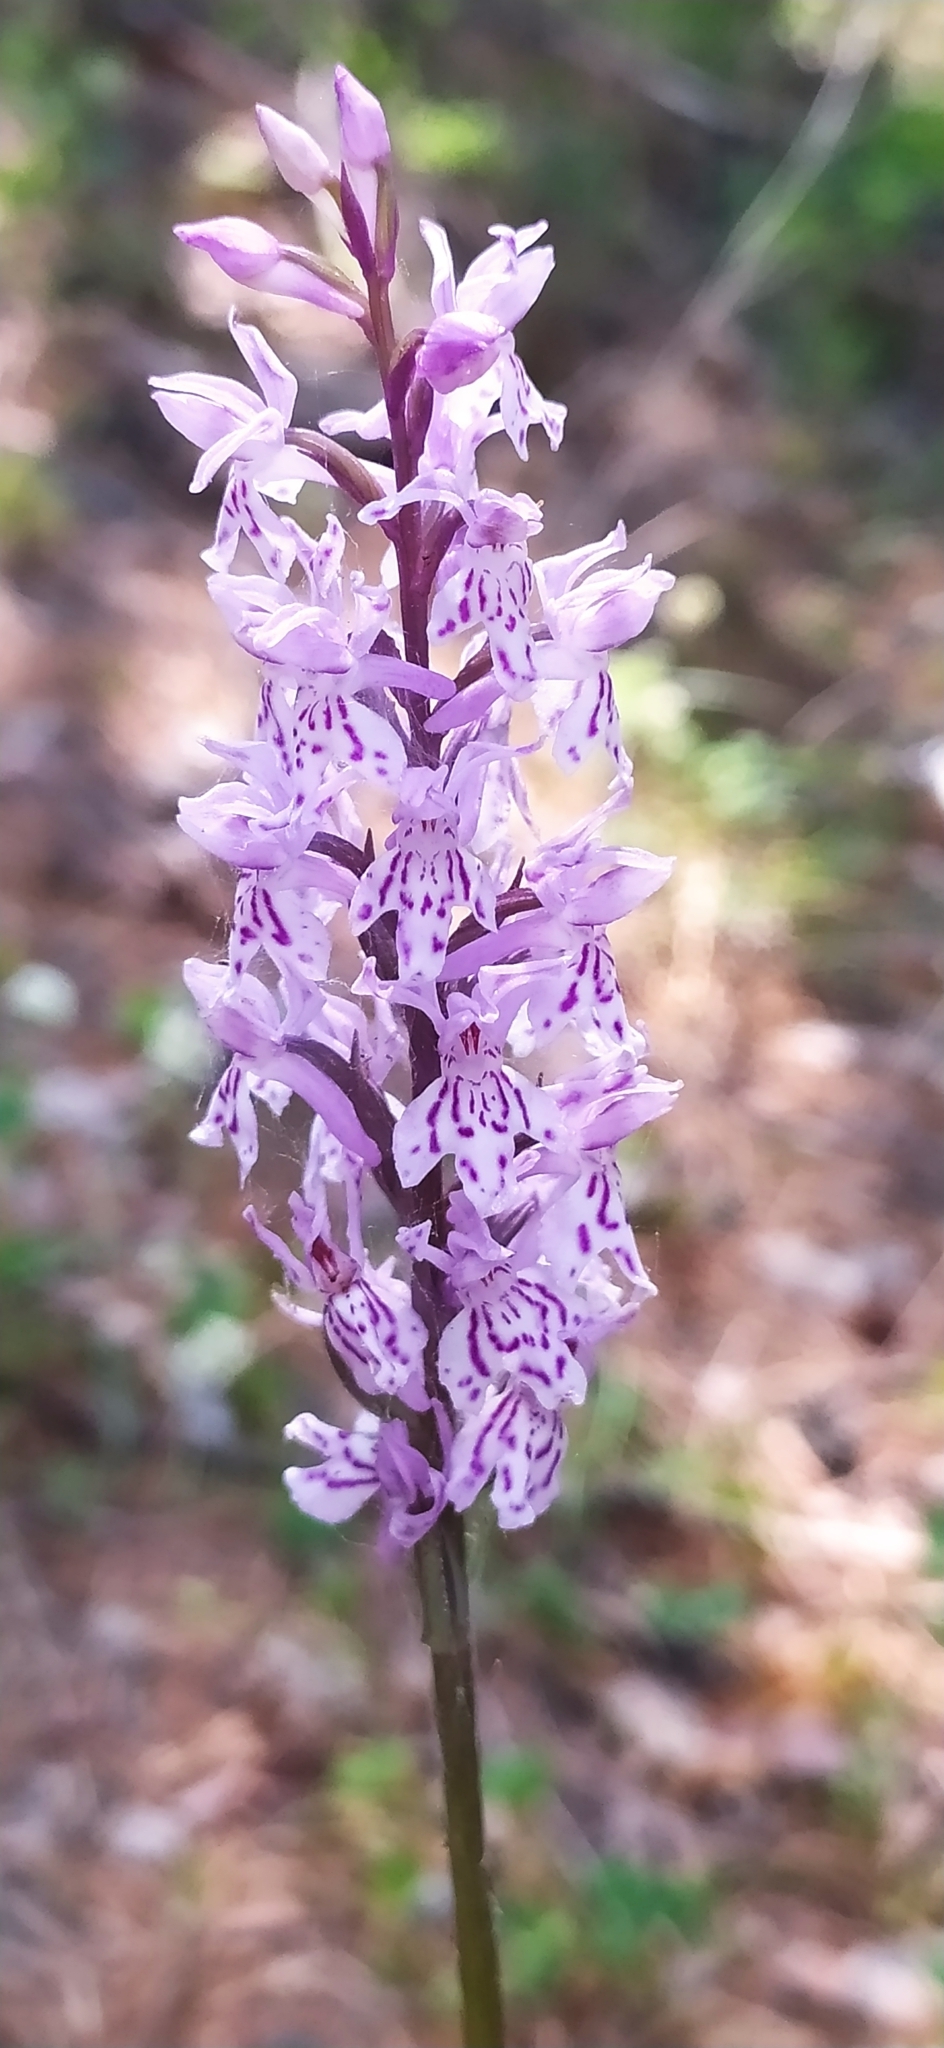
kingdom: Plantae
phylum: Tracheophyta
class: Liliopsida
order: Asparagales
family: Orchidaceae
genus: Dactylorhiza
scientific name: Dactylorhiza maculata
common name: Heath spotted-orchid
